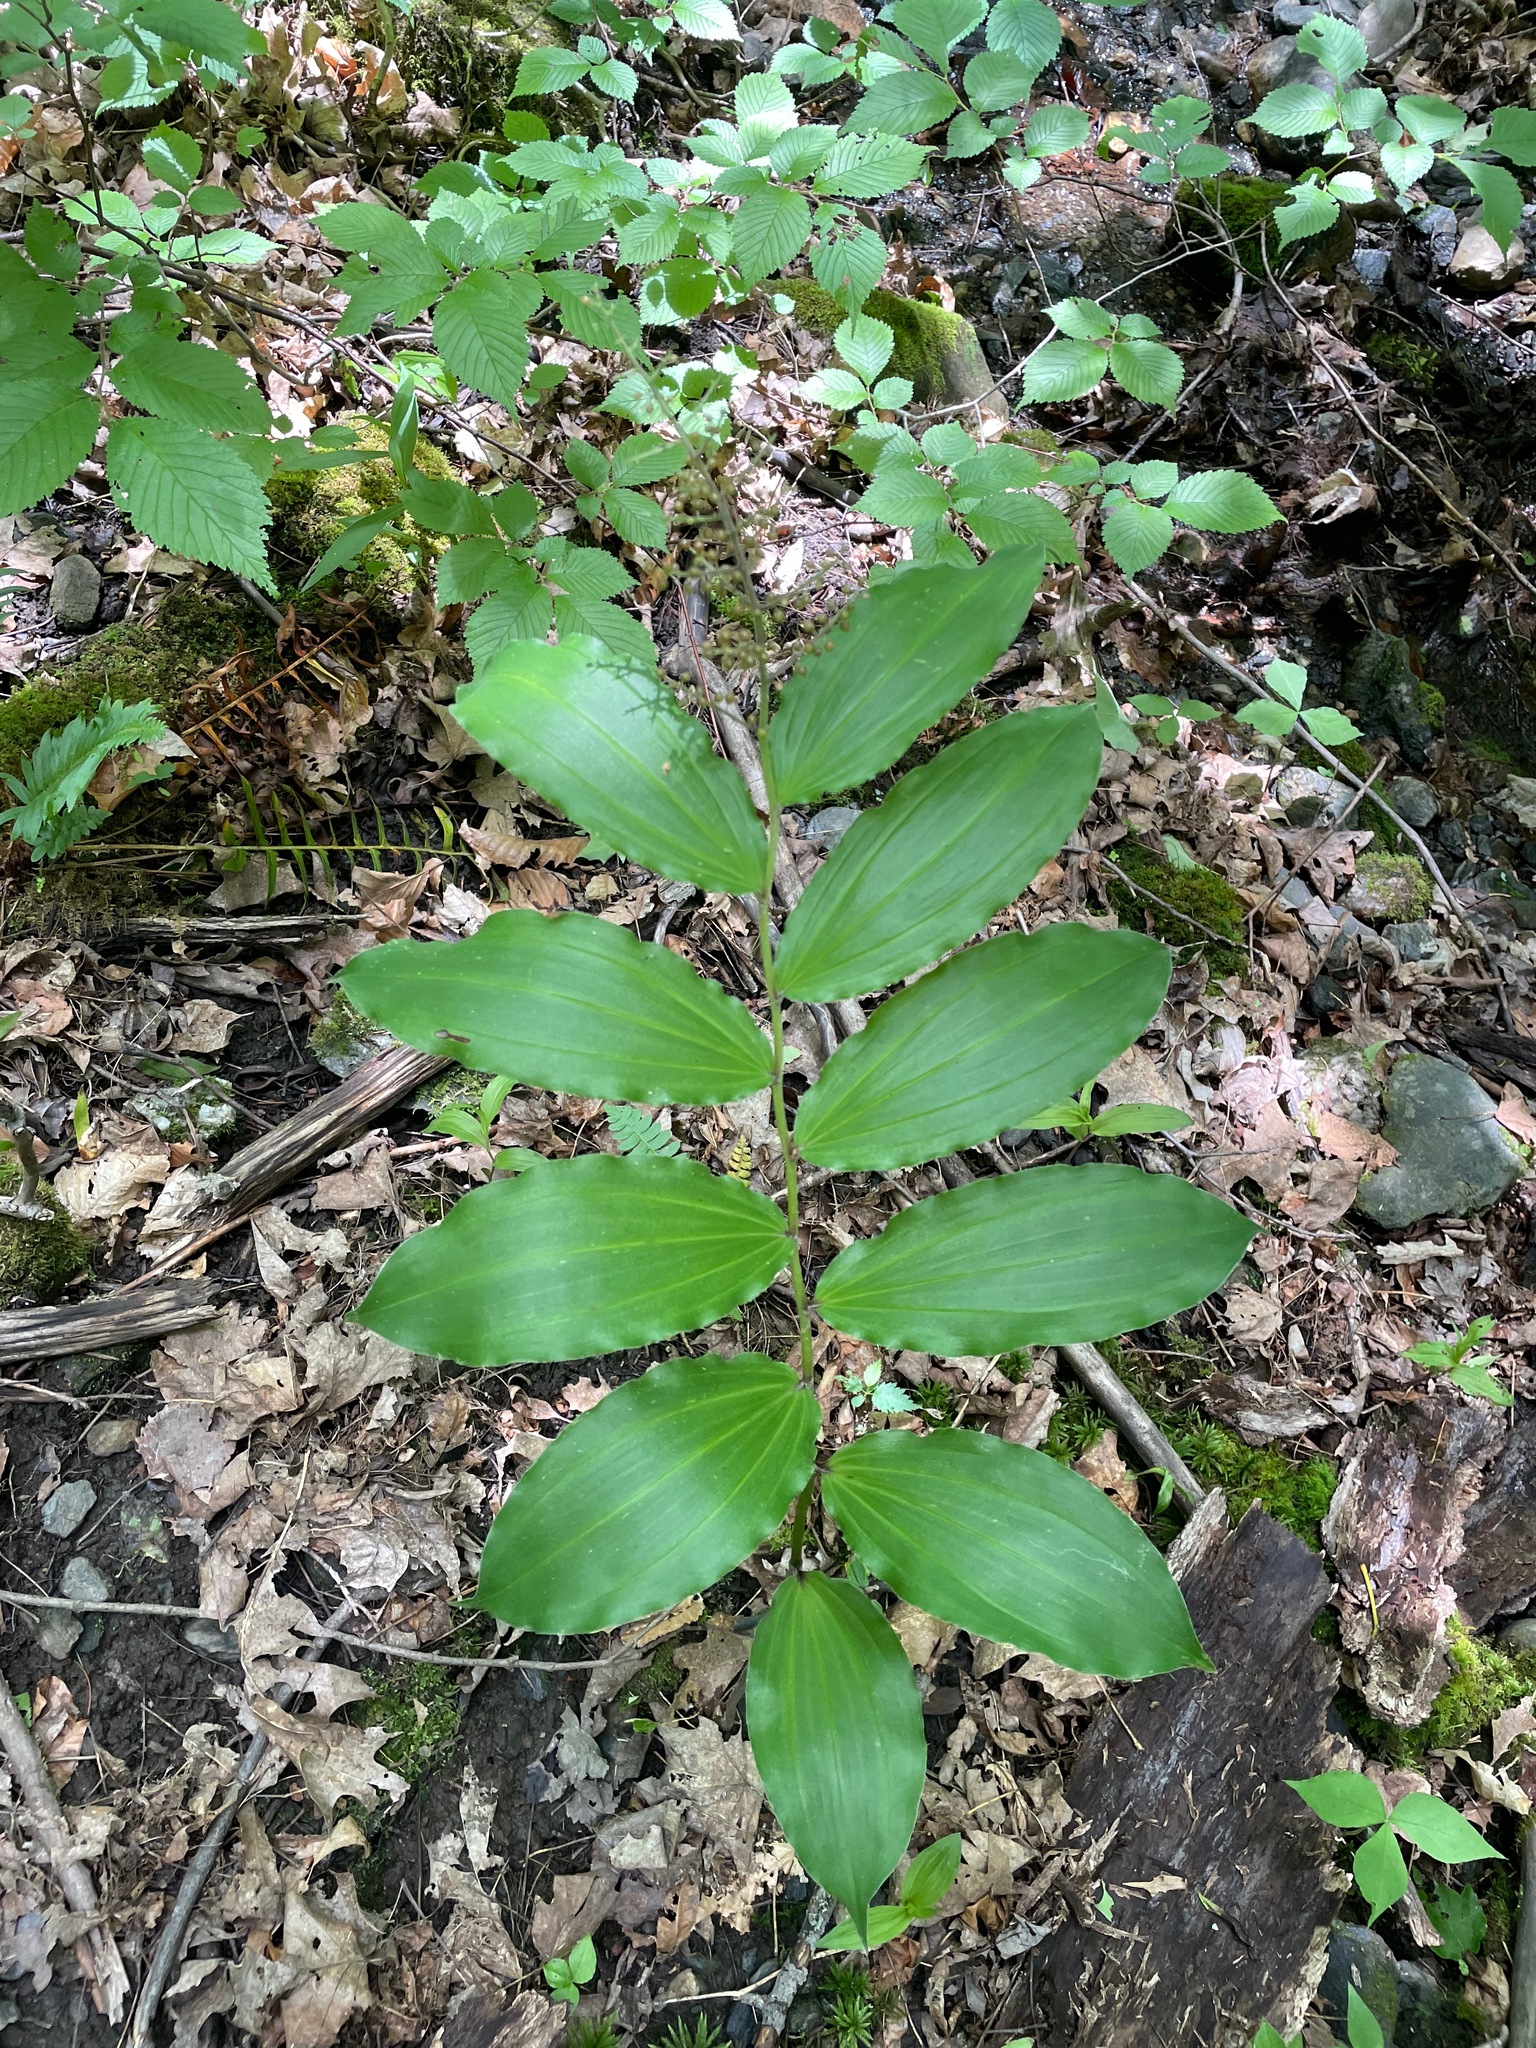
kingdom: Plantae
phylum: Tracheophyta
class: Liliopsida
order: Asparagales
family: Asparagaceae
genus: Maianthemum
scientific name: Maianthemum racemosum
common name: False spikenard
